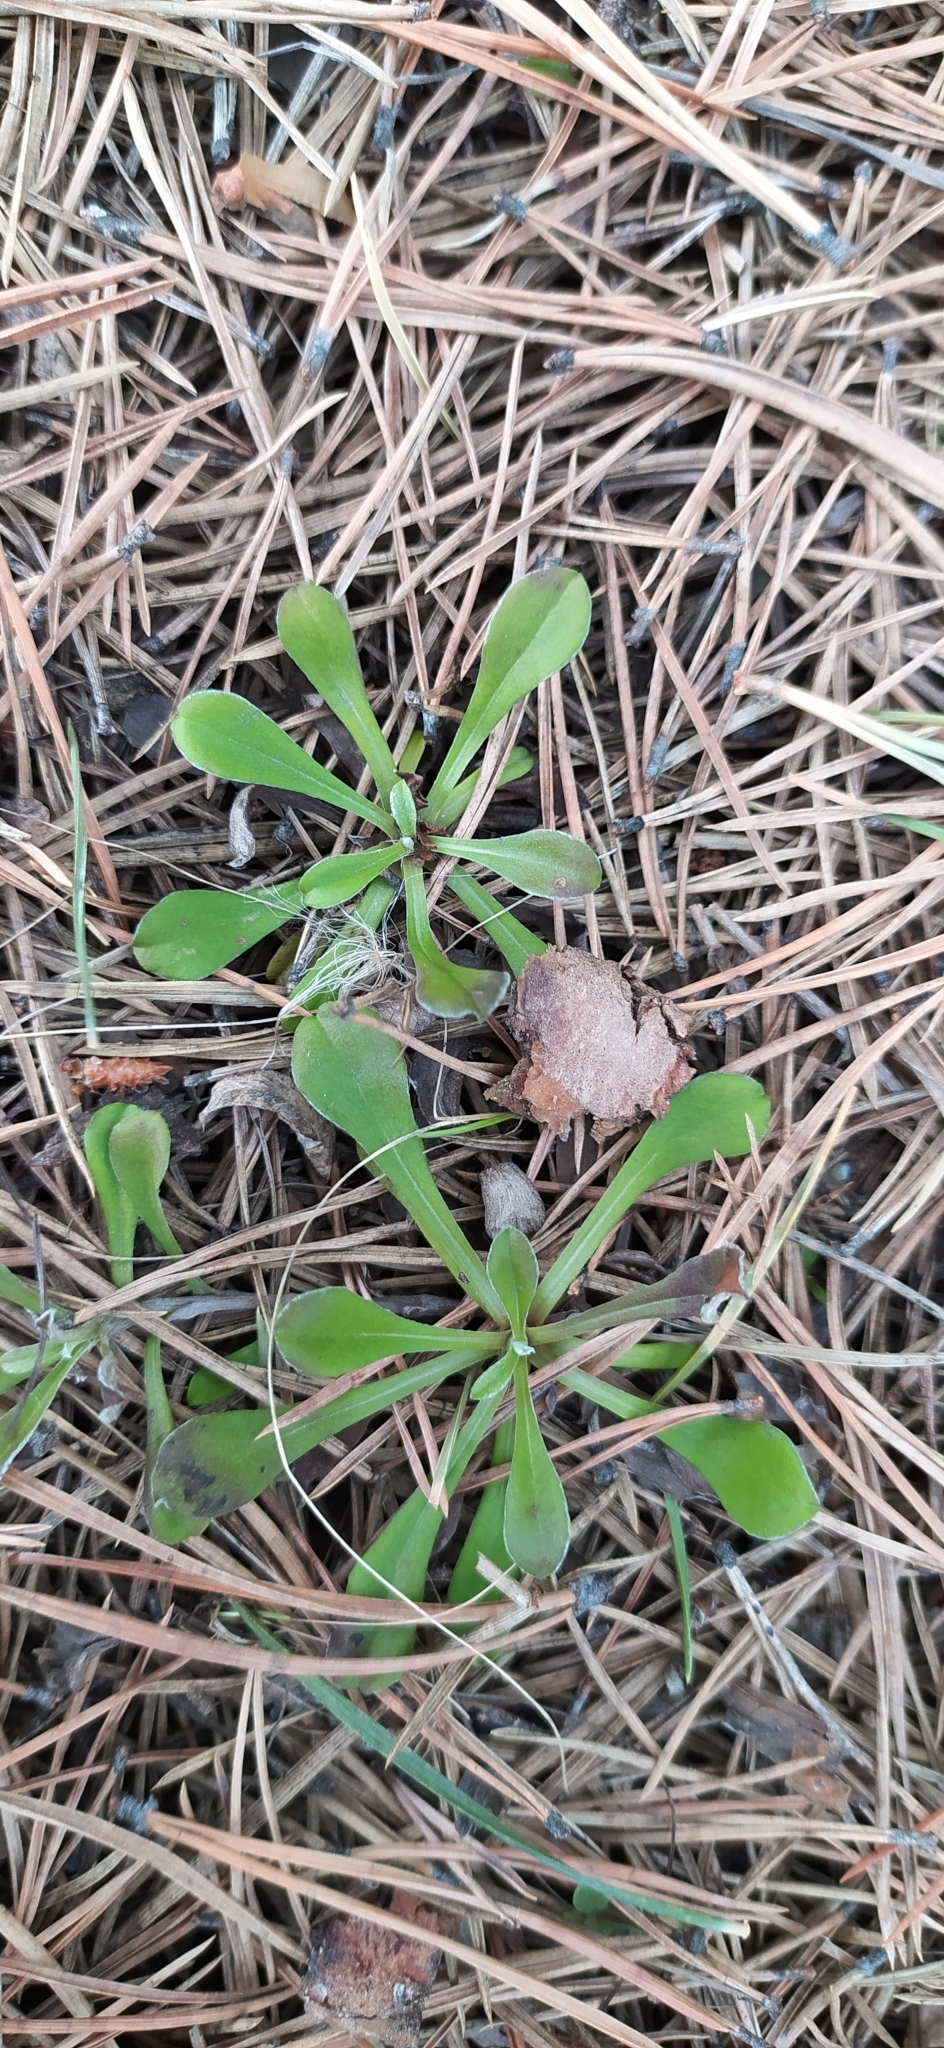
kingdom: Plantae
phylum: Tracheophyta
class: Magnoliopsida
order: Asterales
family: Asteraceae
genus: Antennaria
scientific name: Antennaria dioica
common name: Mountain everlasting
